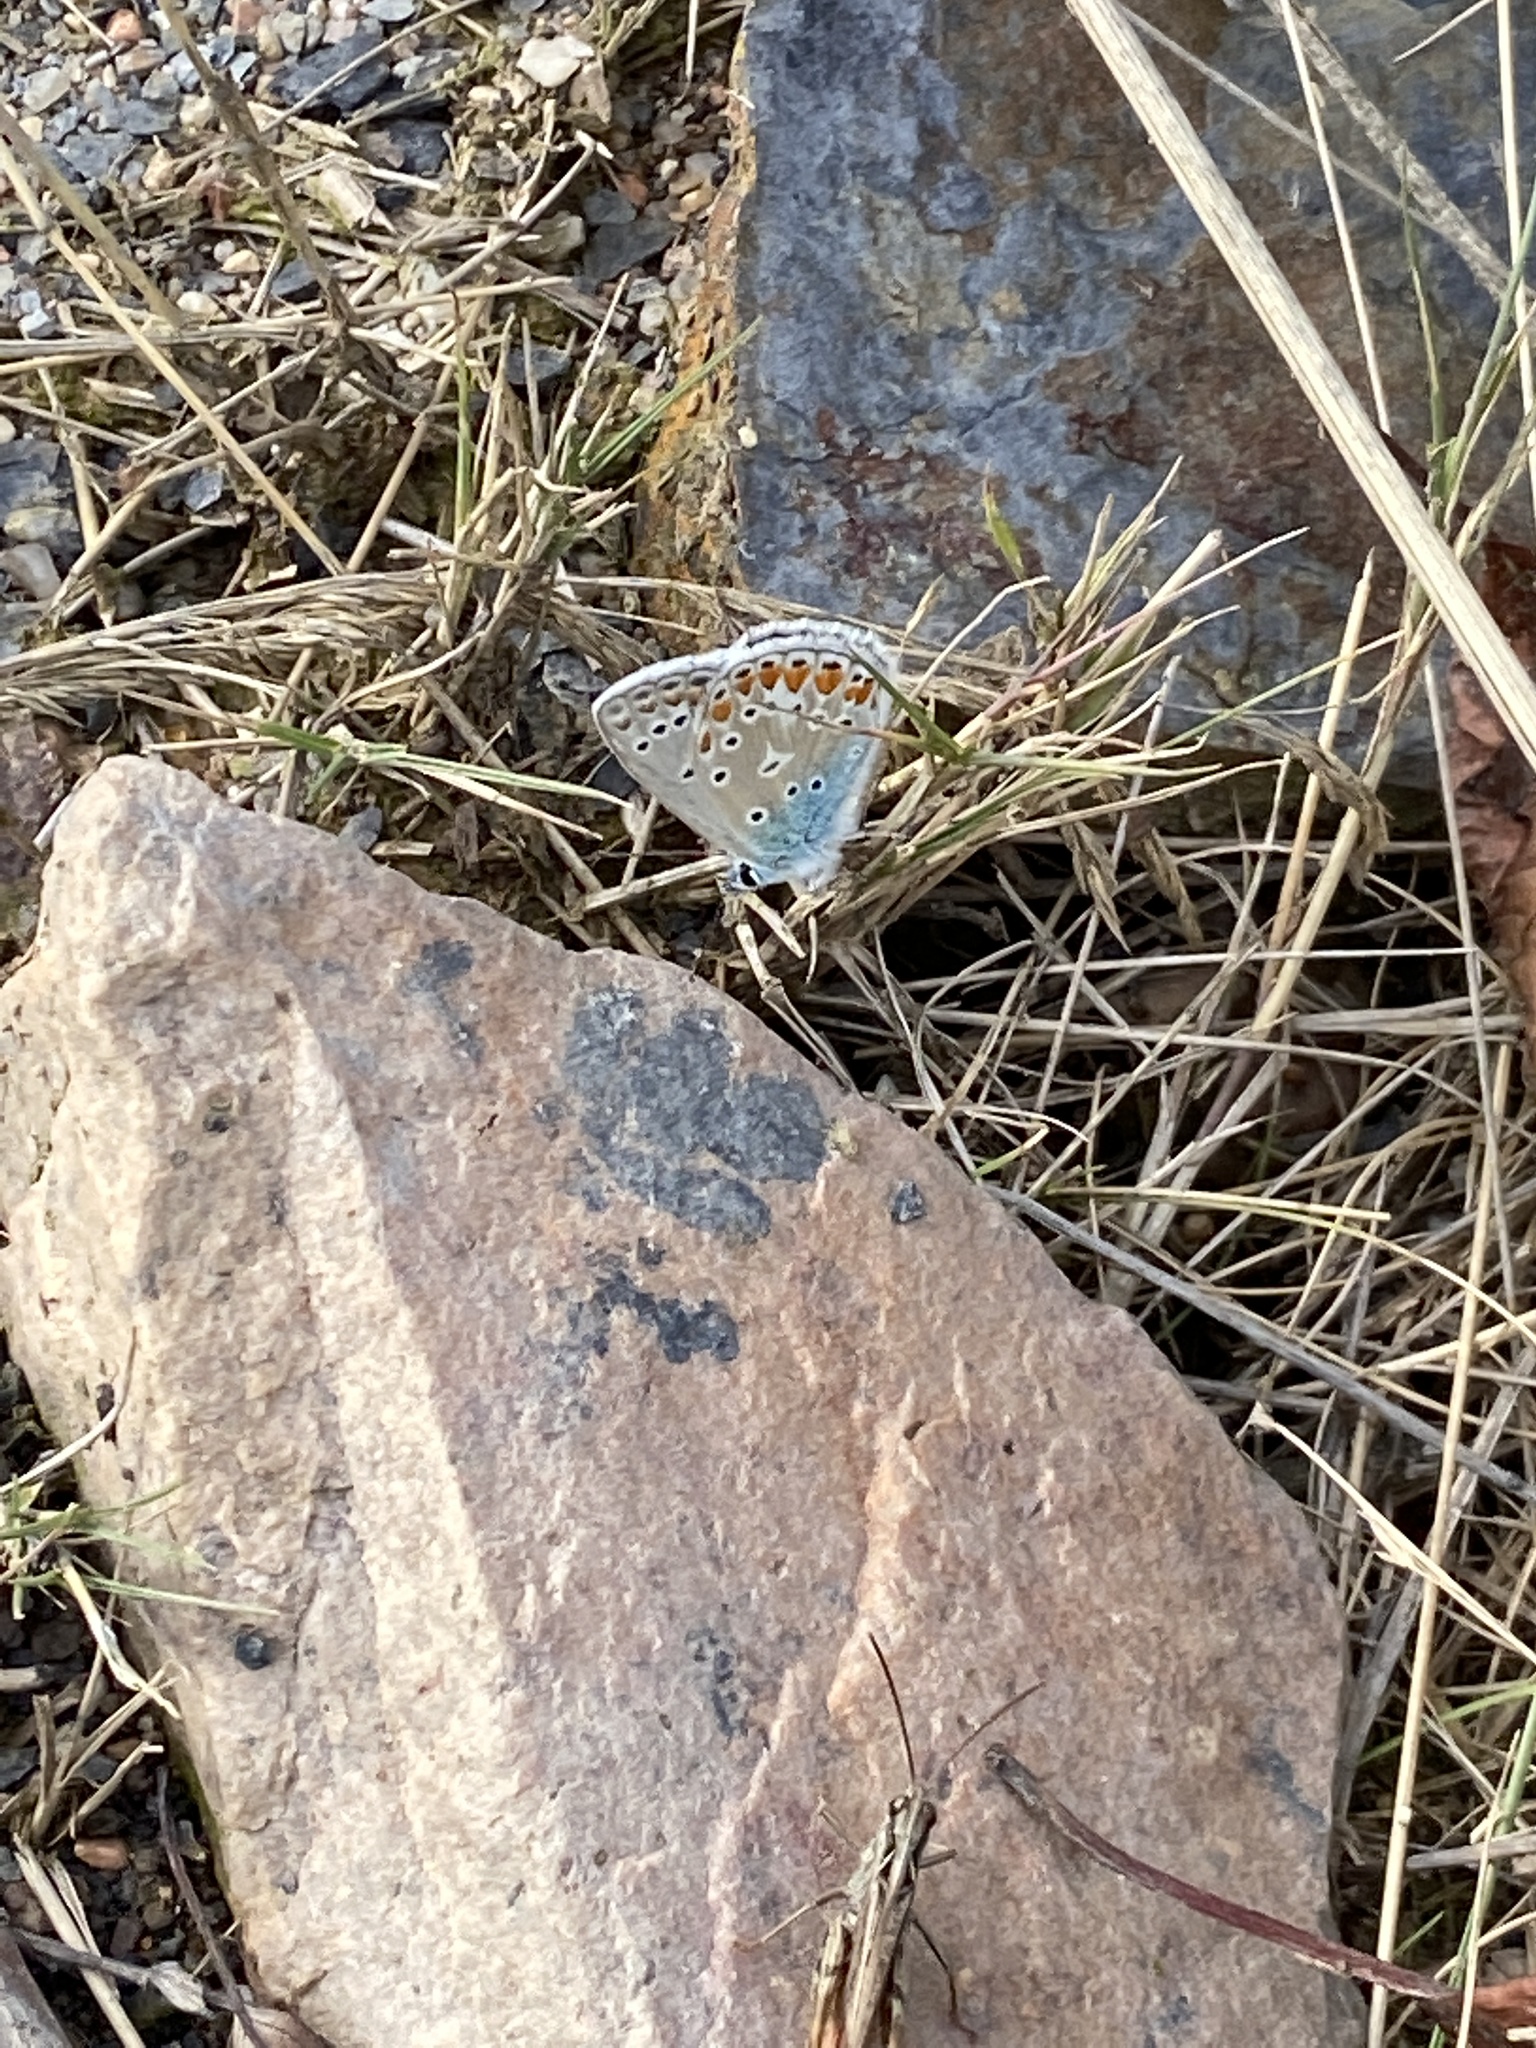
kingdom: Animalia
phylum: Arthropoda
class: Insecta
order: Lepidoptera
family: Lycaenidae
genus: Polyommatus
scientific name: Polyommatus icarus
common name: Common blue
